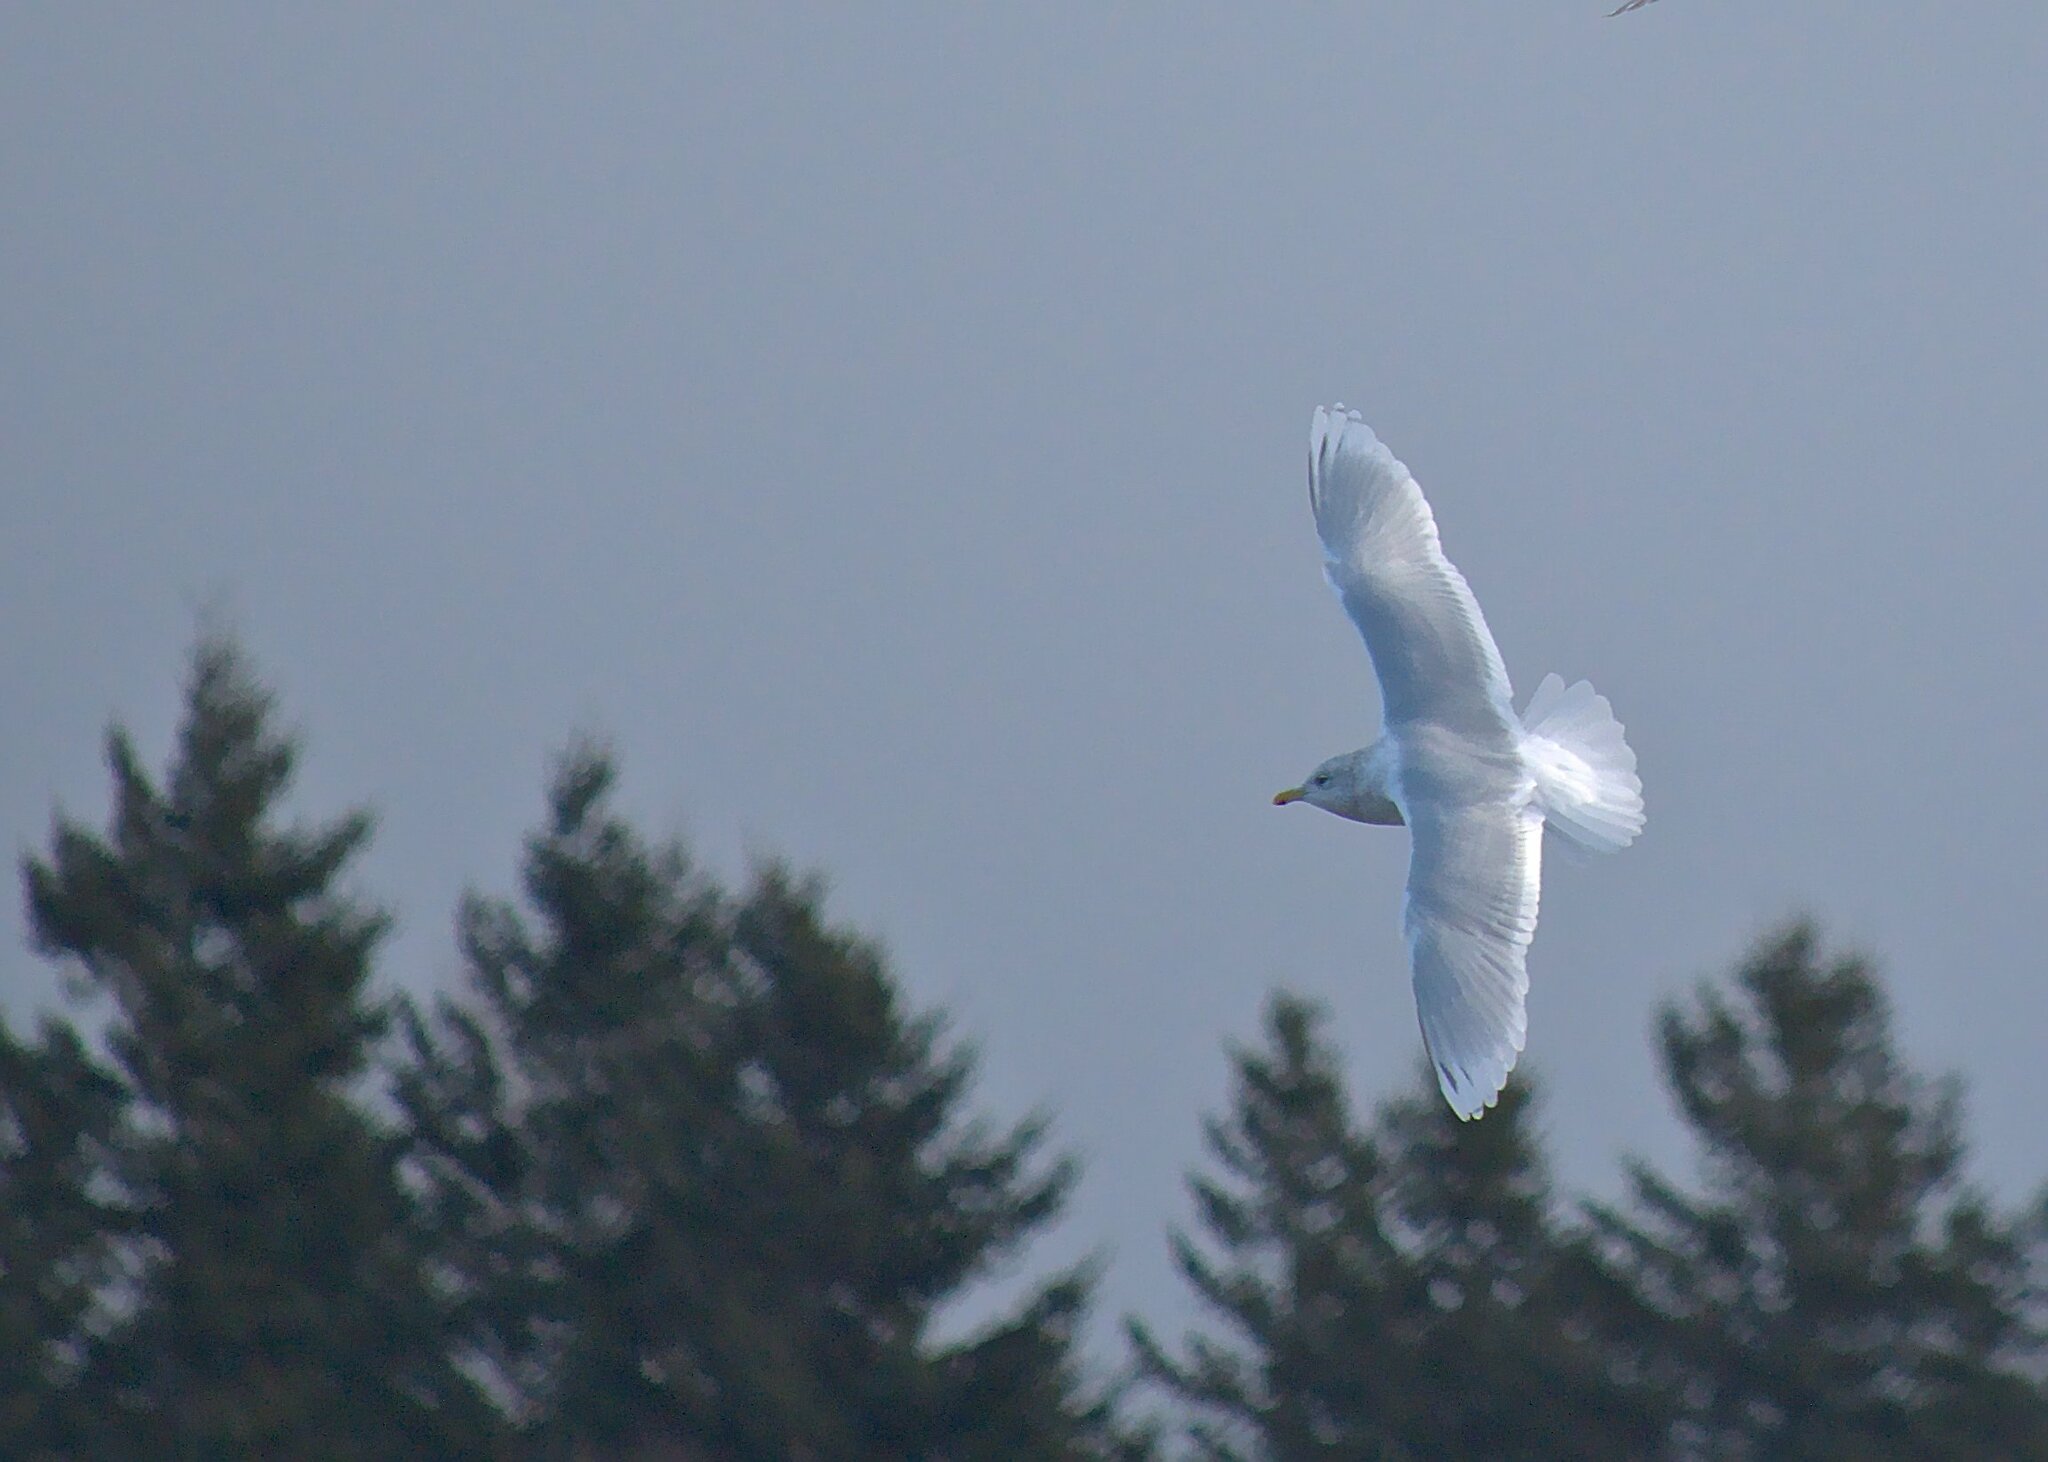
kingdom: Animalia
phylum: Chordata
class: Aves
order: Charadriiformes
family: Laridae
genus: Larus
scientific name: Larus glaucoides
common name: Iceland gull
